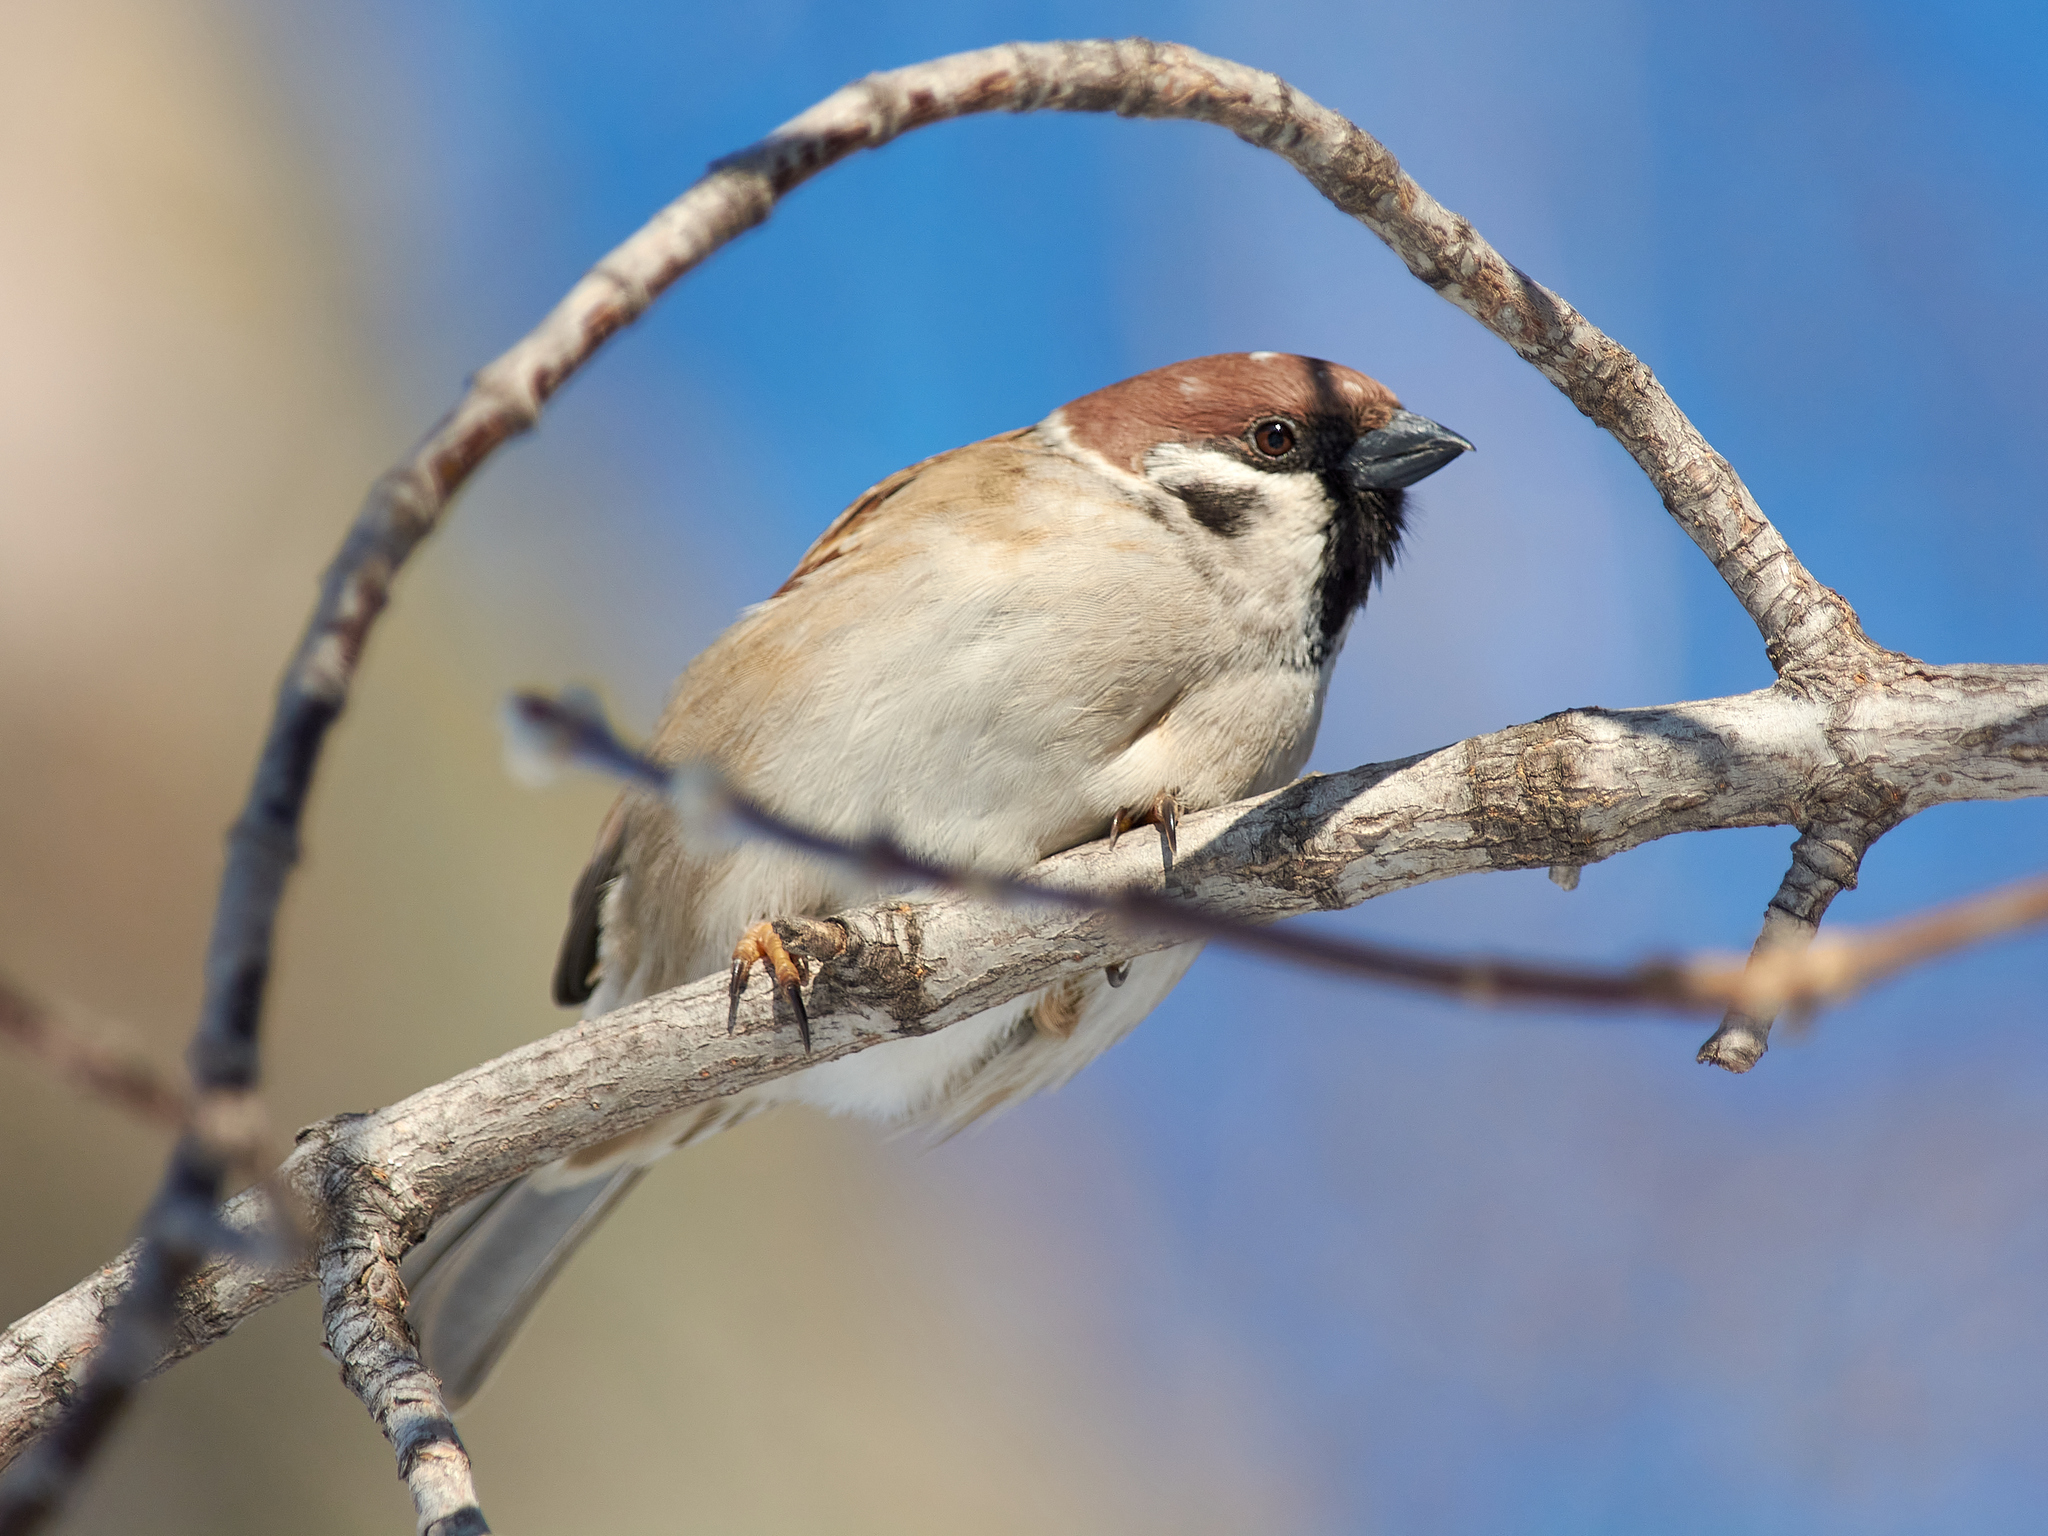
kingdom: Animalia
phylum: Chordata
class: Aves
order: Passeriformes
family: Passeridae
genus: Passer
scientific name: Passer montanus
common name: Eurasian tree sparrow
